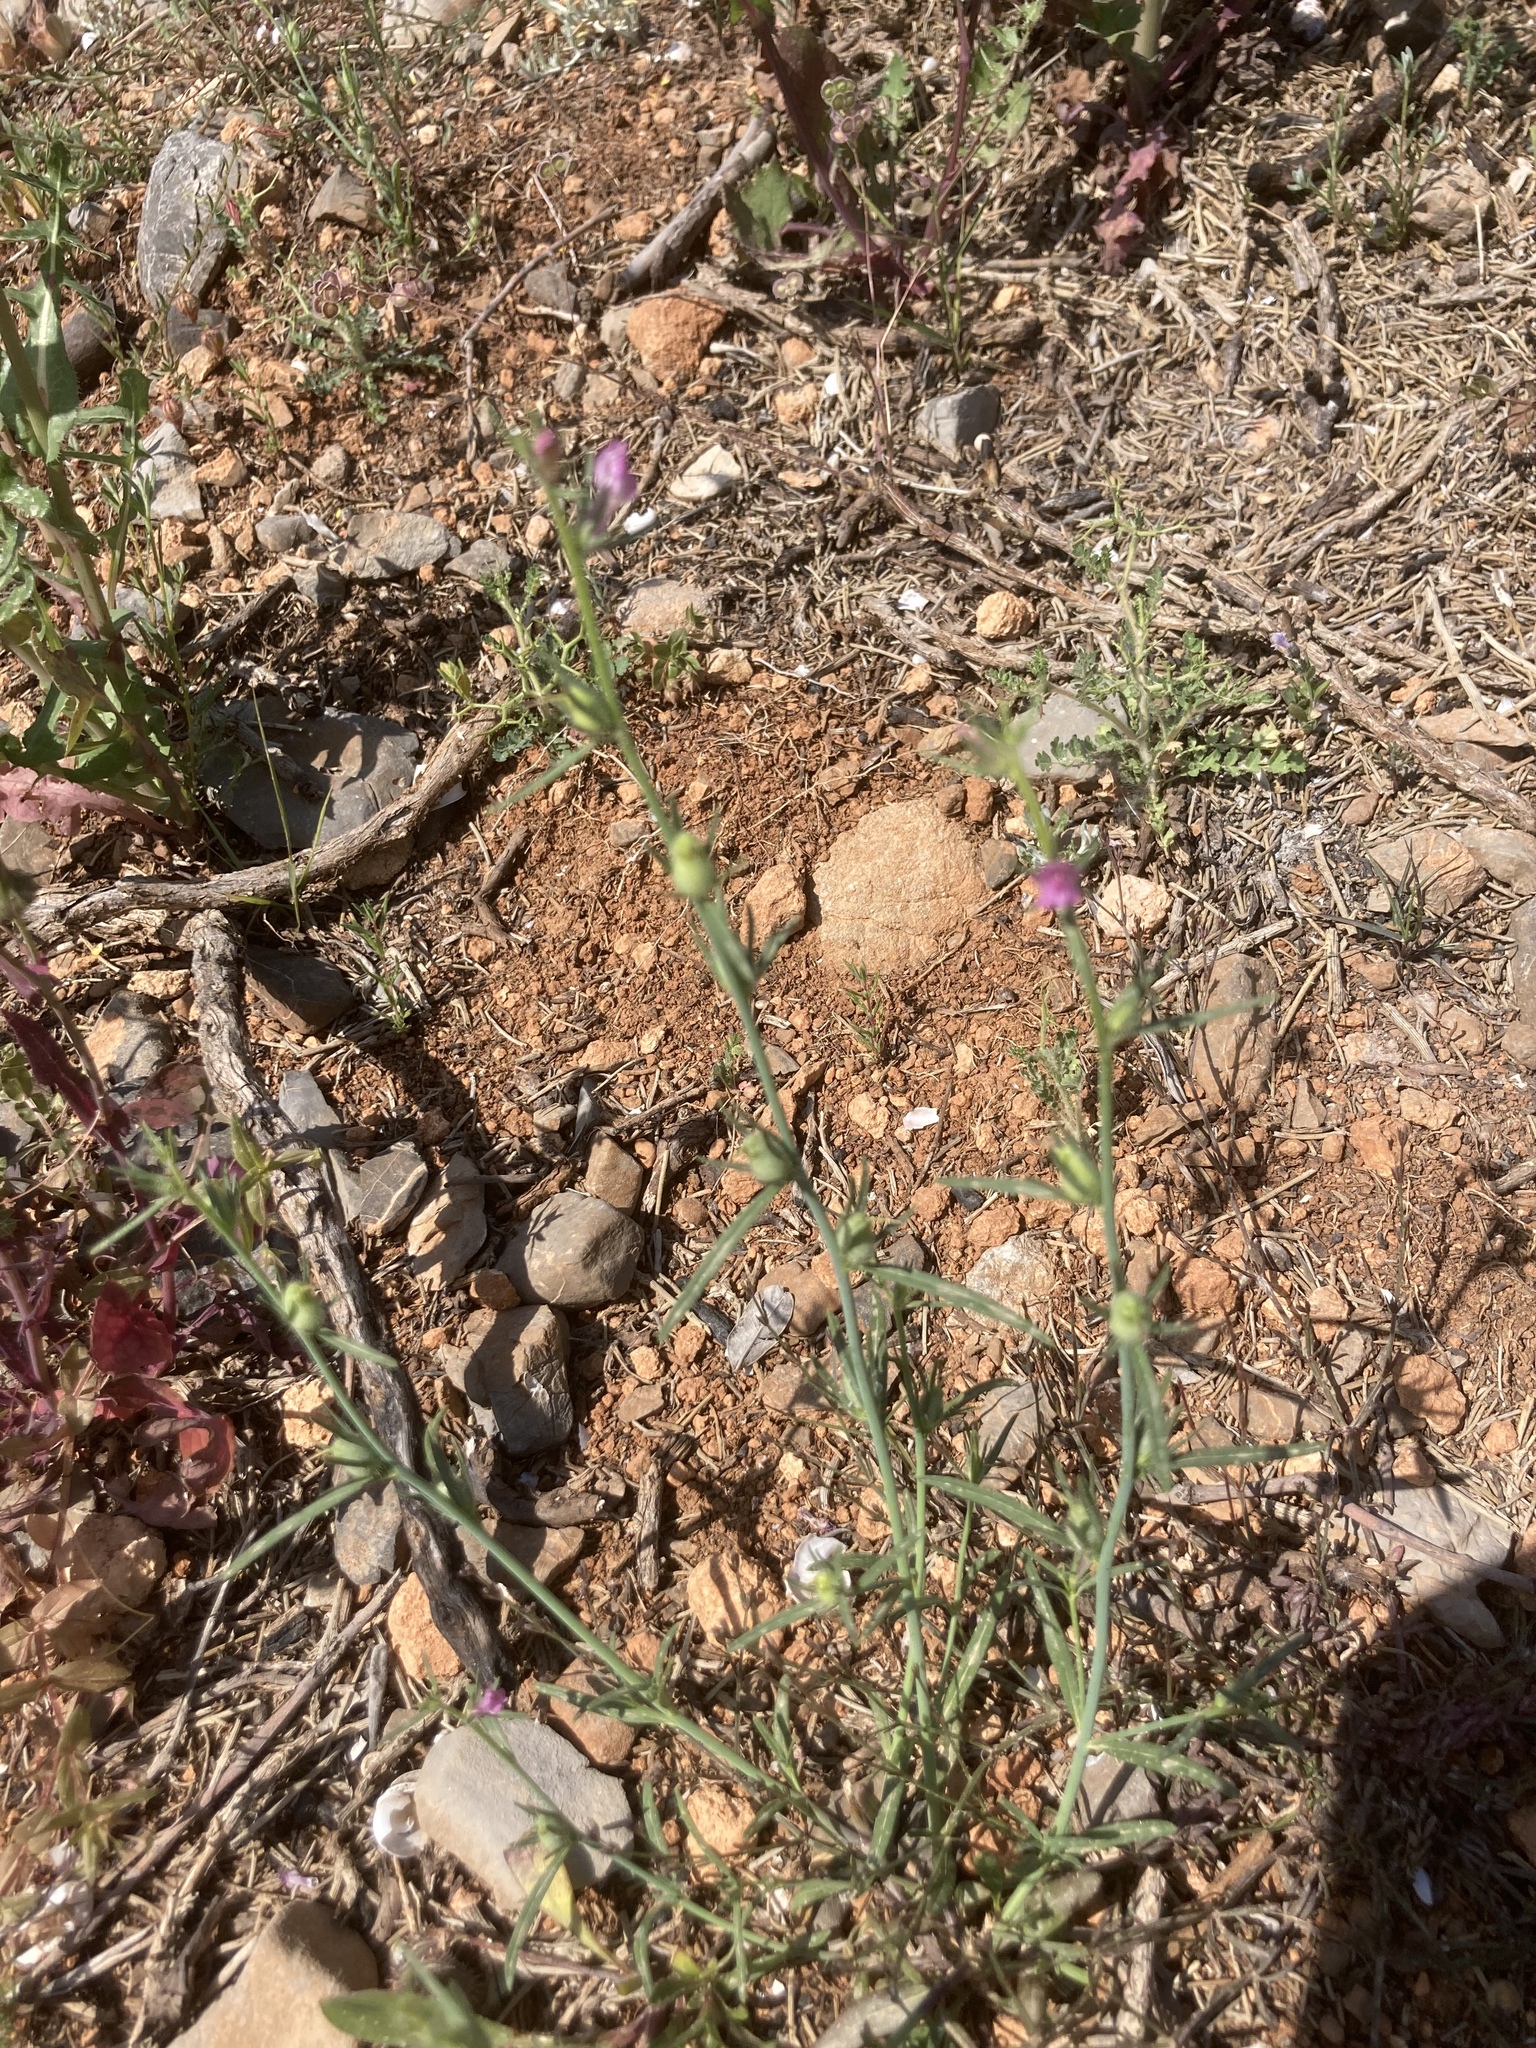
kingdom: Plantae
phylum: Tracheophyta
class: Magnoliopsida
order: Lamiales
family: Plantaginaceae
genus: Misopates
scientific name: Misopates orontium
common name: Weasel's-snout
